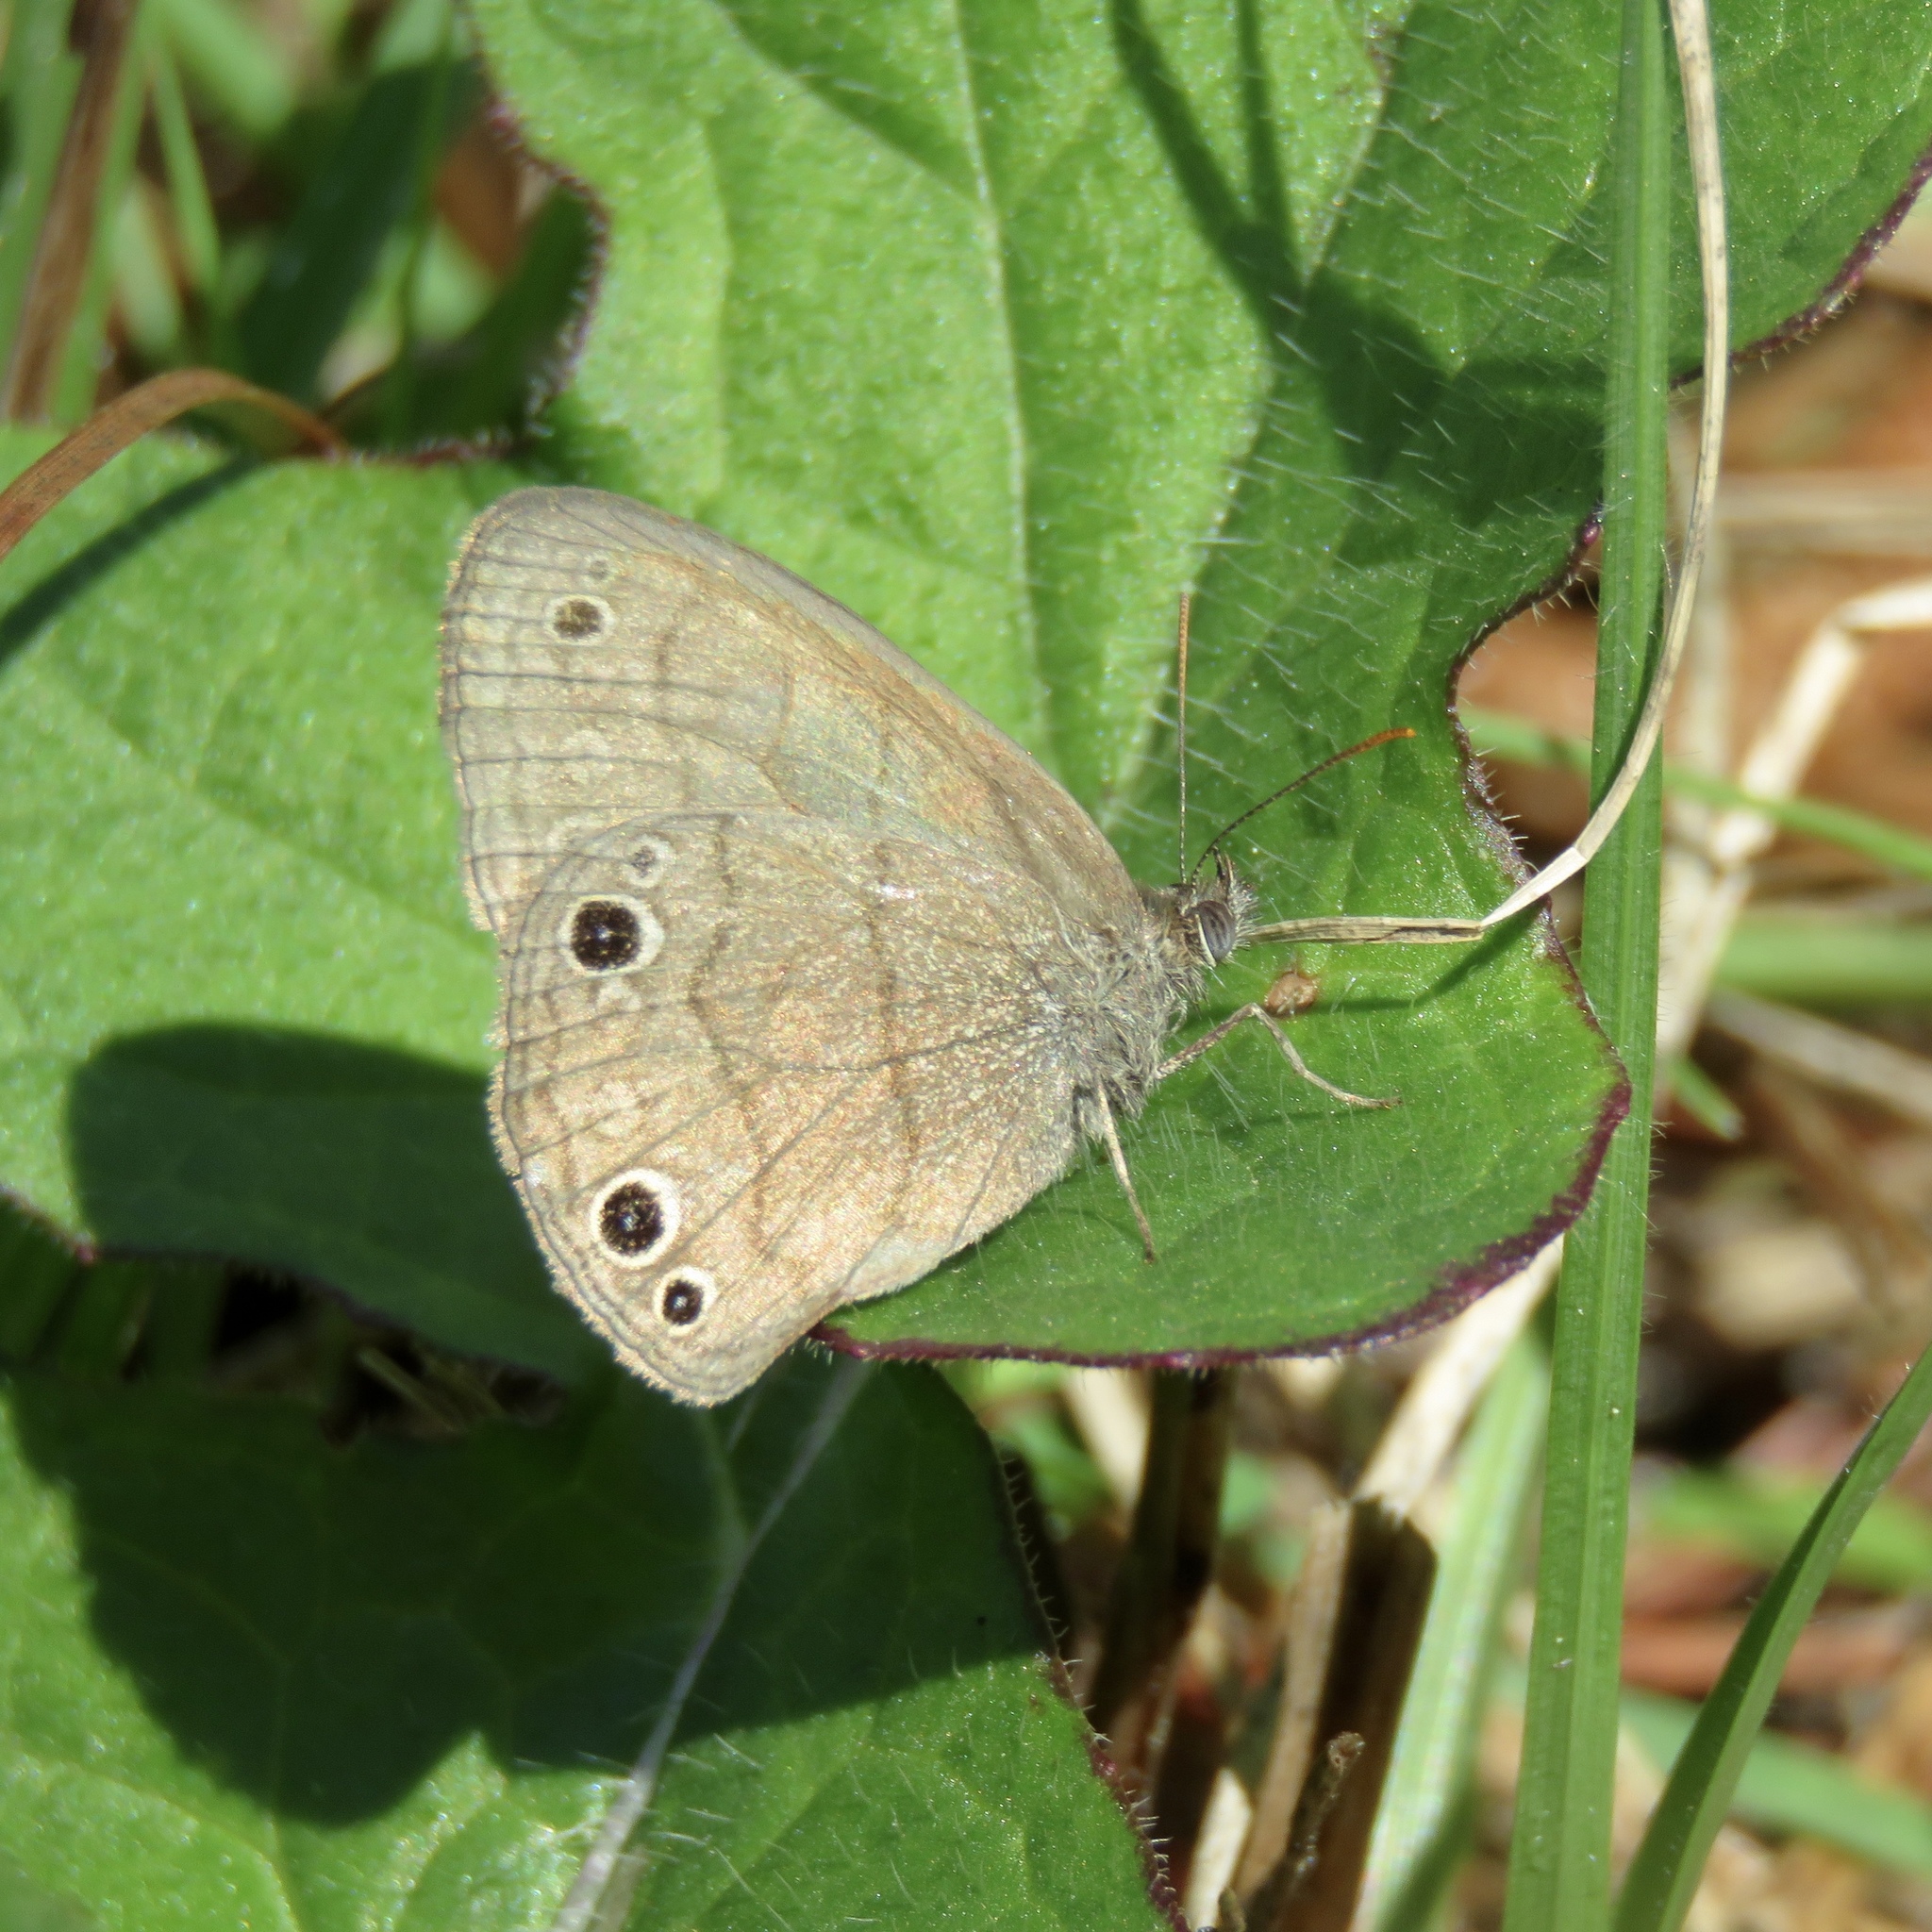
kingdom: Animalia
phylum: Arthropoda
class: Insecta
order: Lepidoptera
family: Nymphalidae
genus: Hermeuptychia
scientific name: Hermeuptychia hermes
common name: Hermes satyr
